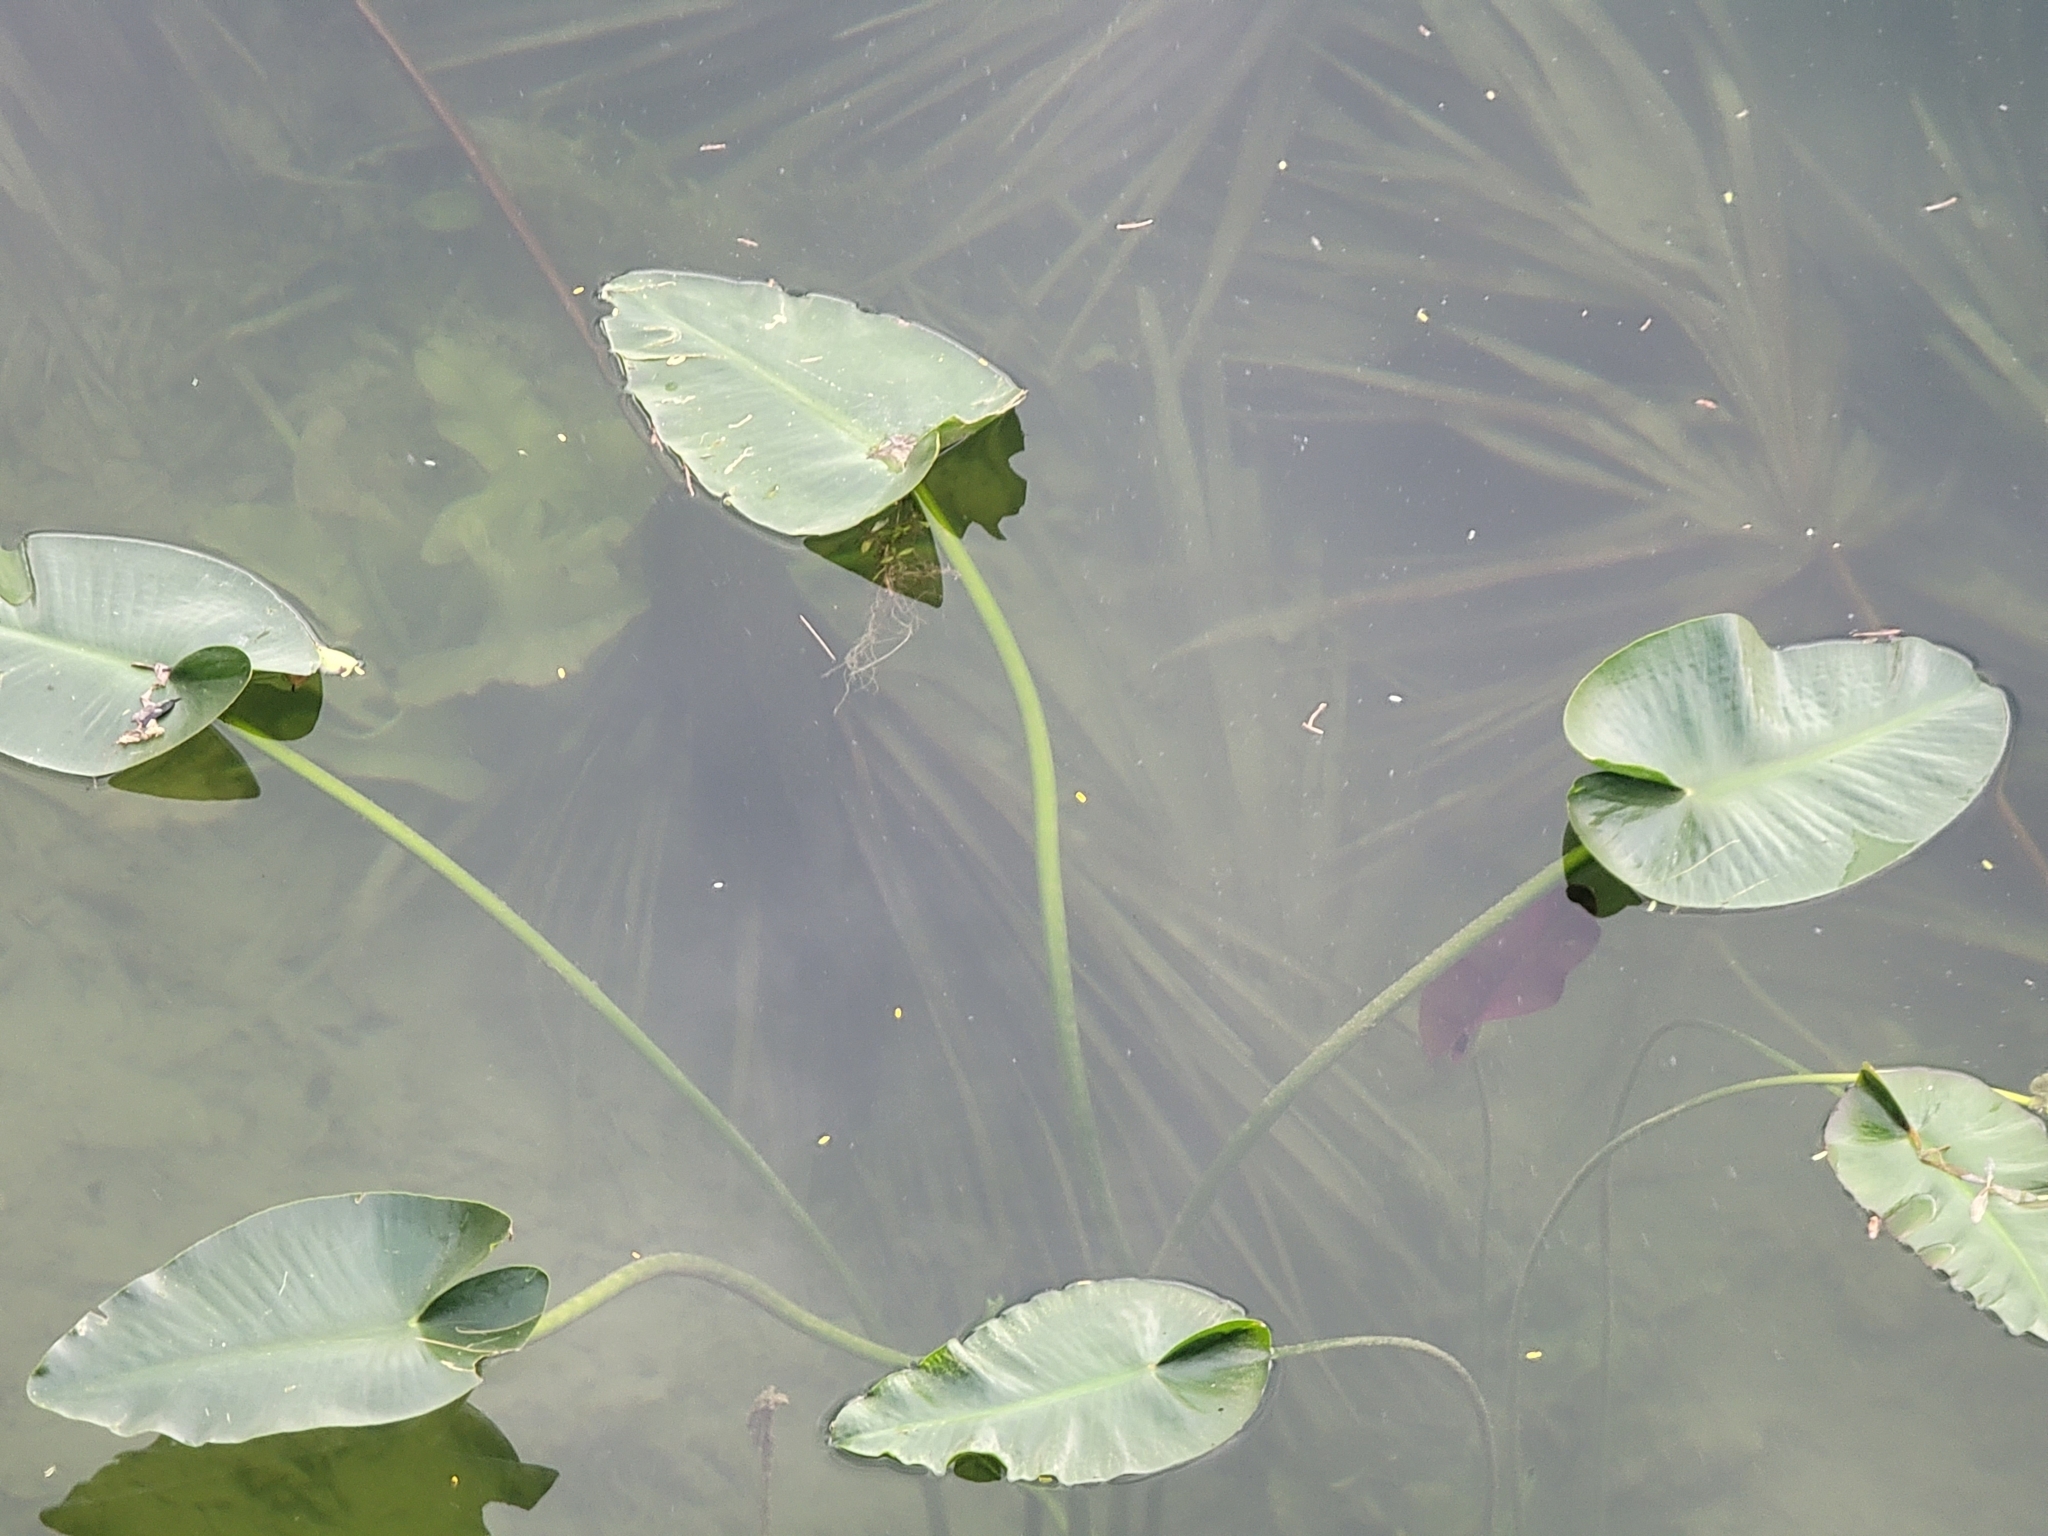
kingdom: Plantae
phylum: Tracheophyta
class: Magnoliopsida
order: Nymphaeales
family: Nymphaeaceae
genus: Nuphar
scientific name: Nuphar advena
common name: Spatter-dock
